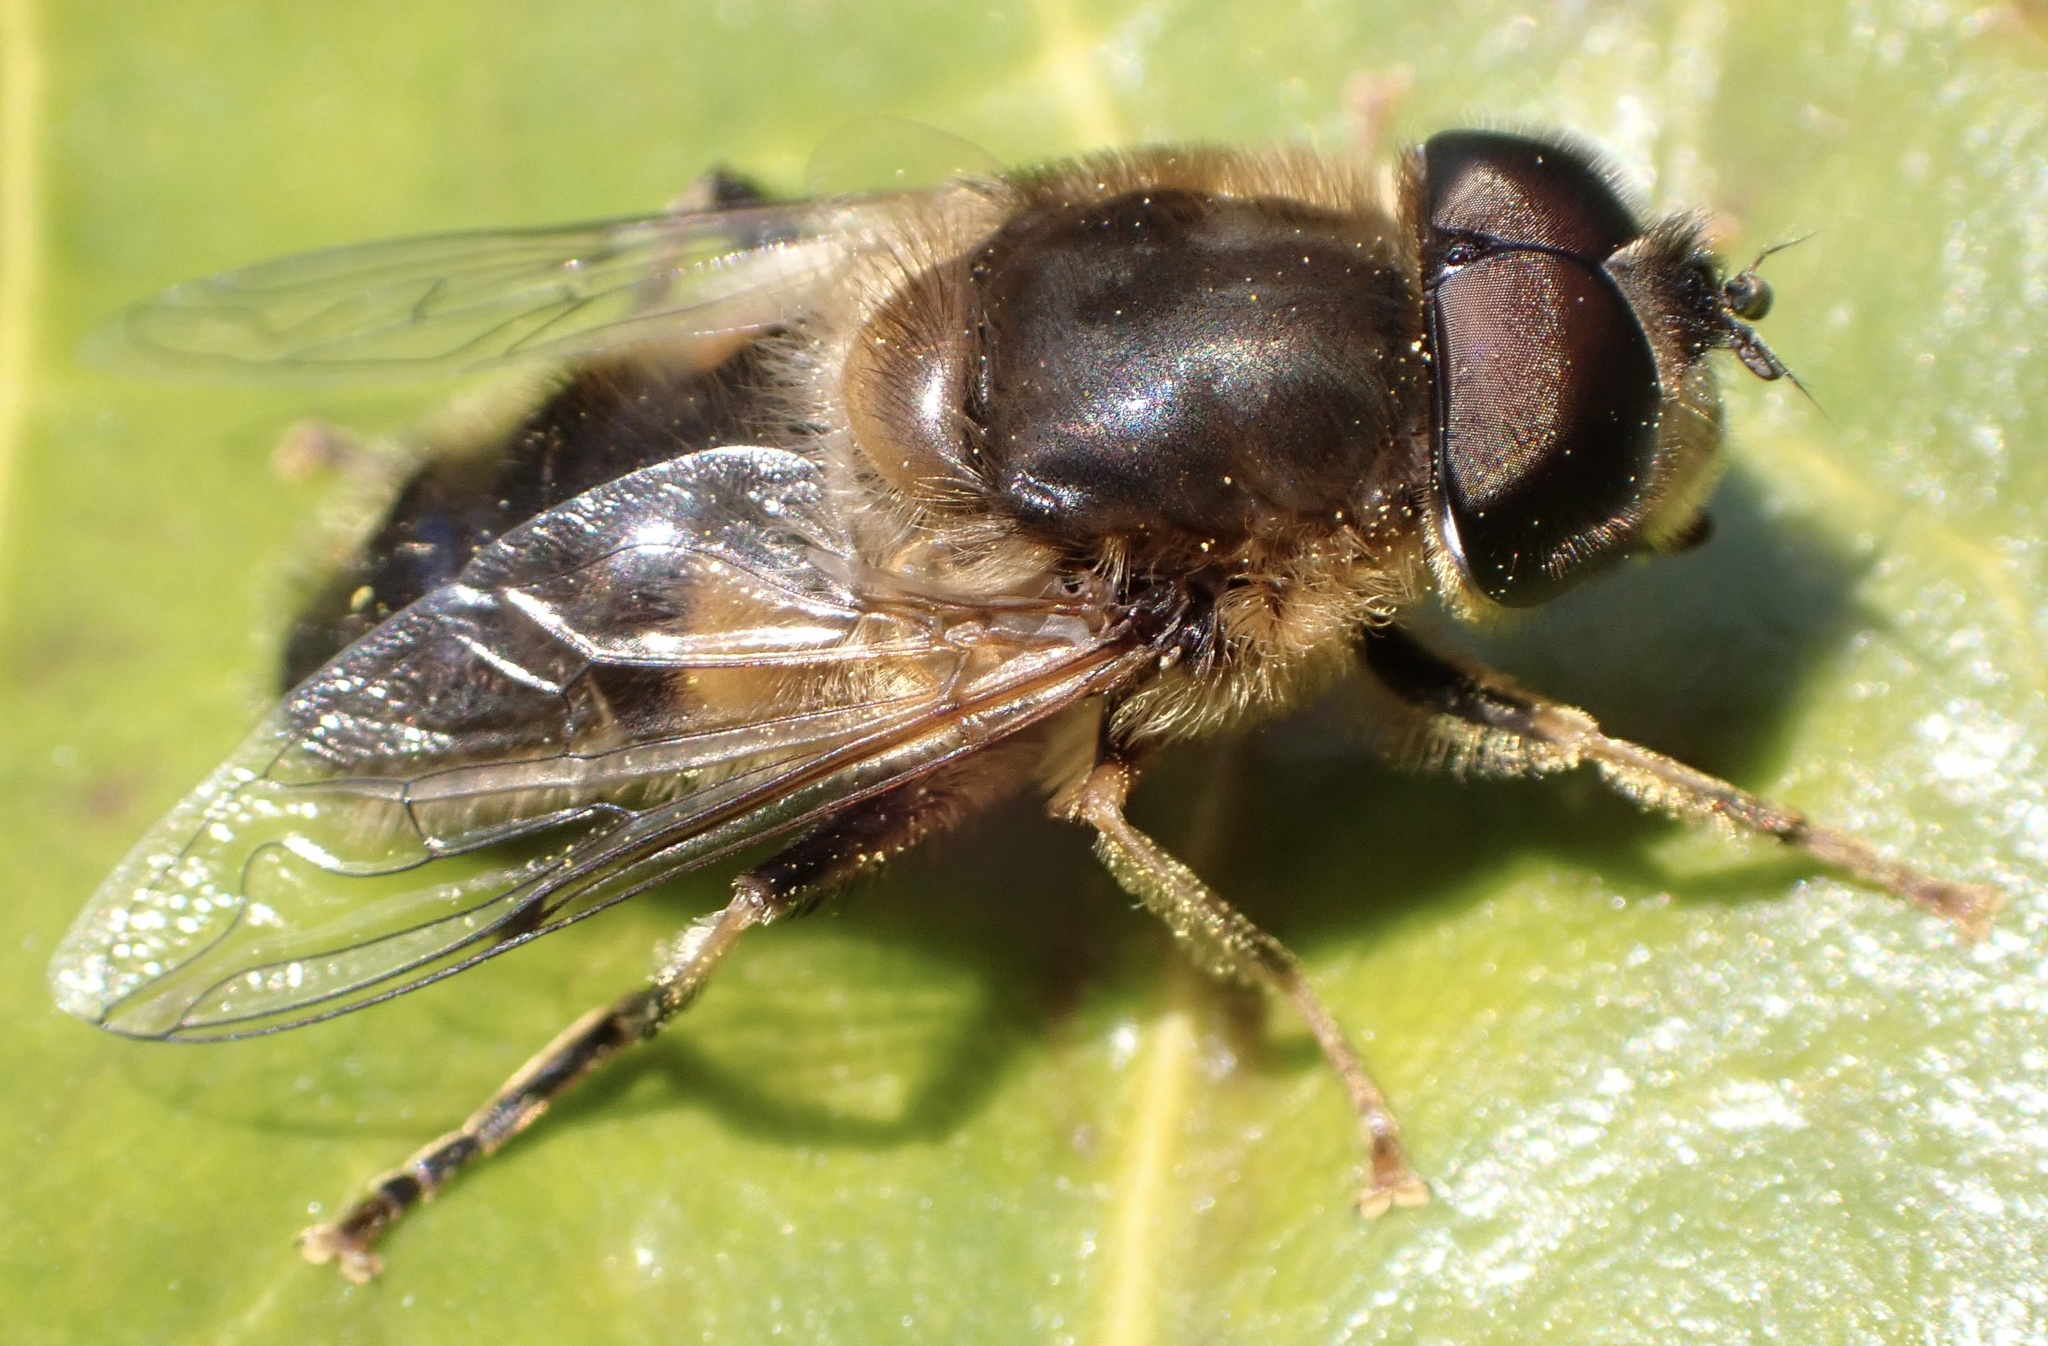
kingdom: Animalia
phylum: Arthropoda
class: Insecta
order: Diptera
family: Syrphidae
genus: Eristalis
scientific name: Eristalis pertinax
